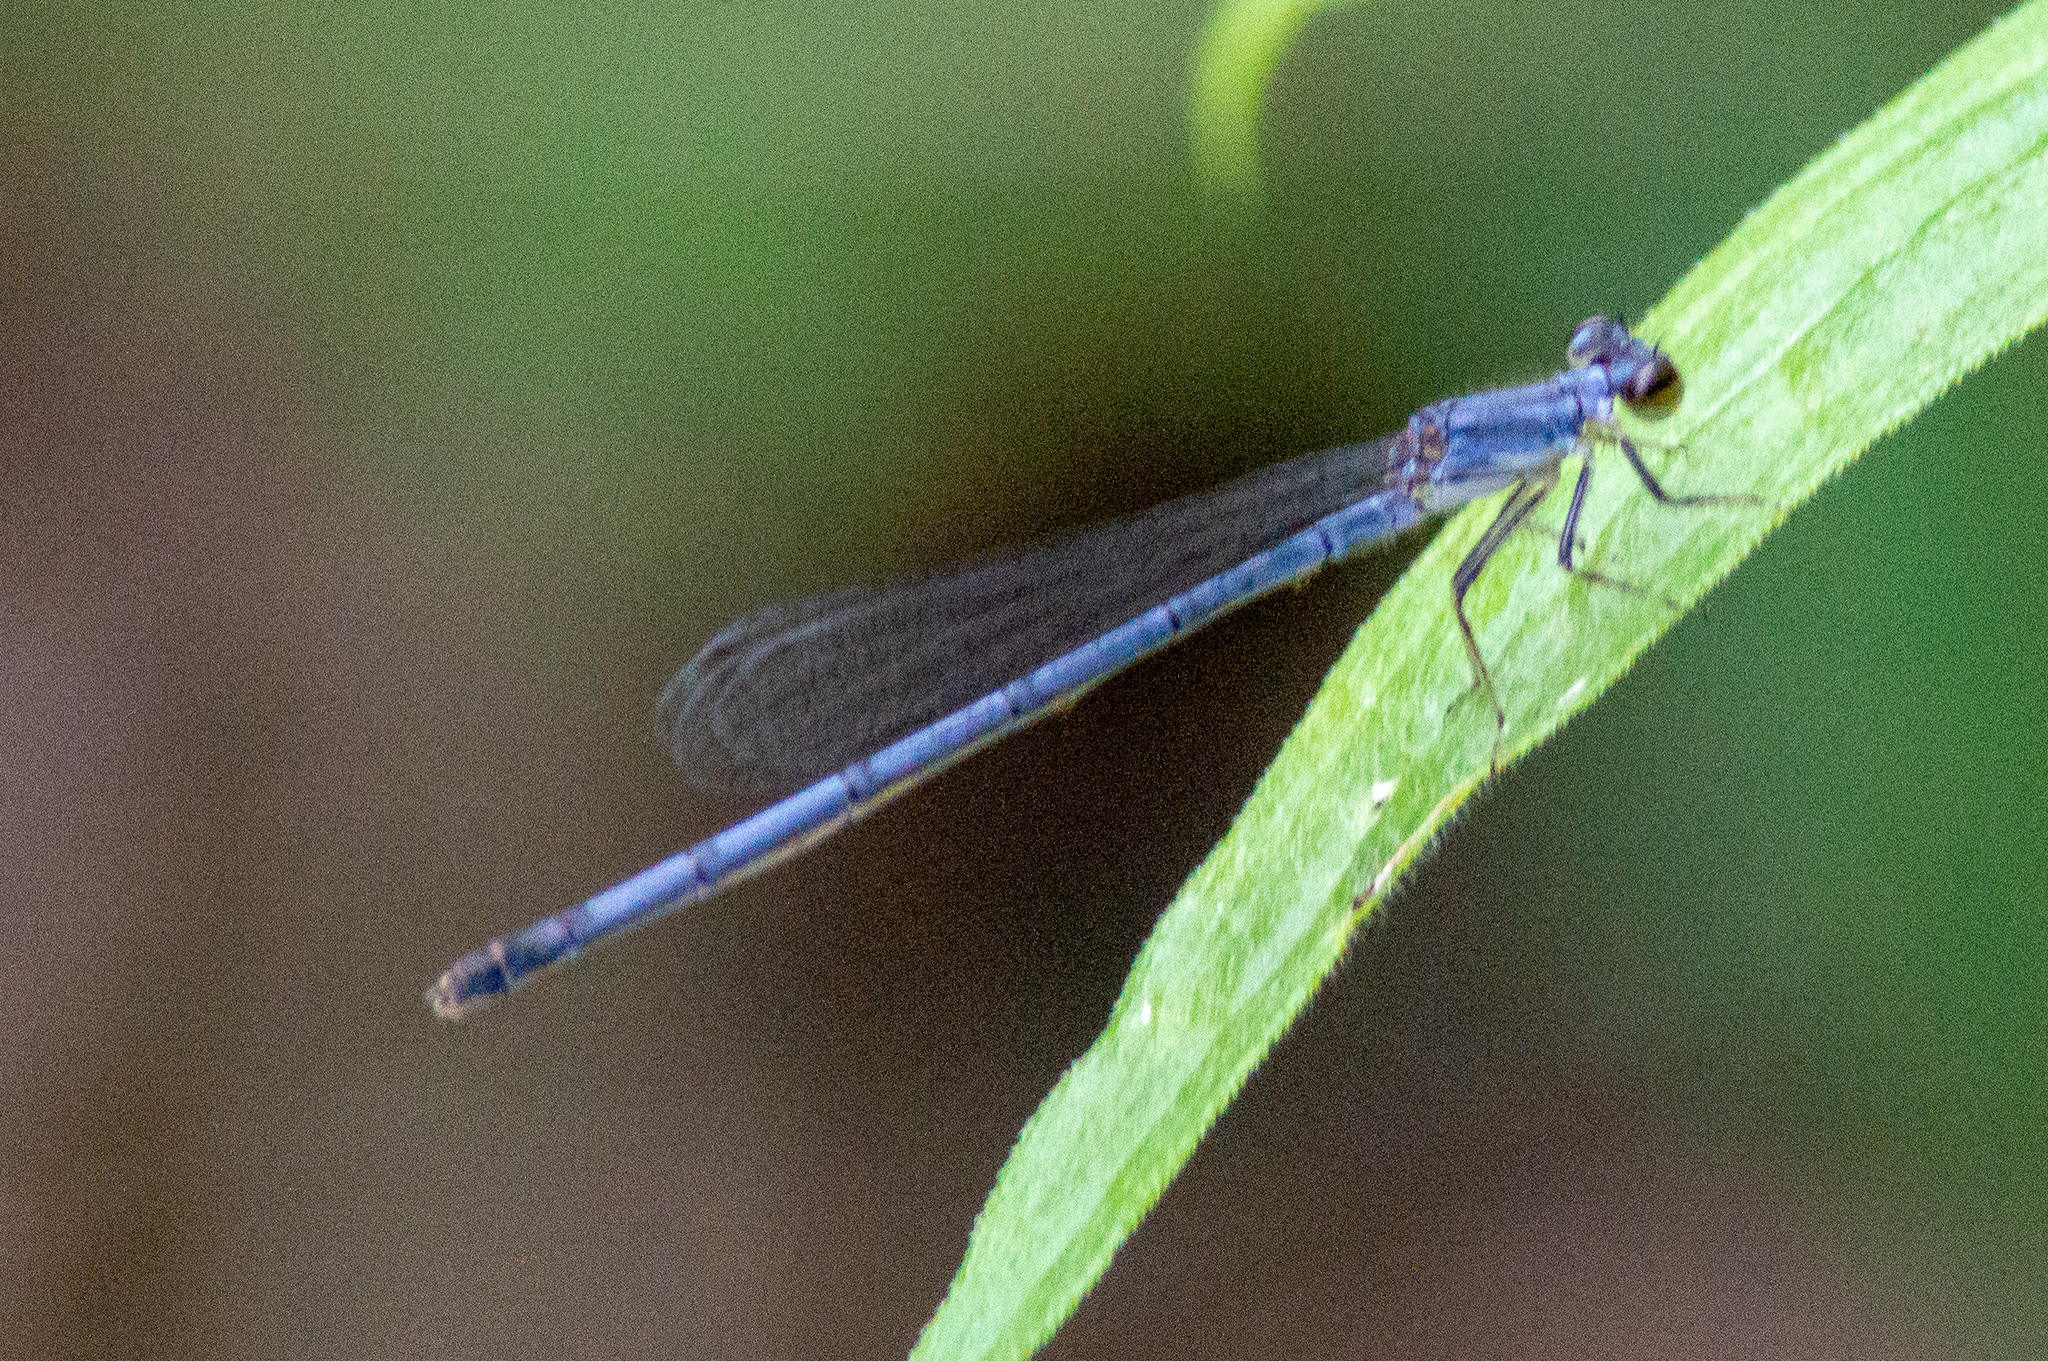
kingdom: Animalia
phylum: Arthropoda
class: Insecta
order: Odonata
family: Coenagrionidae
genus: Ischnura
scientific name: Ischnura posita
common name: Fragile forktail
